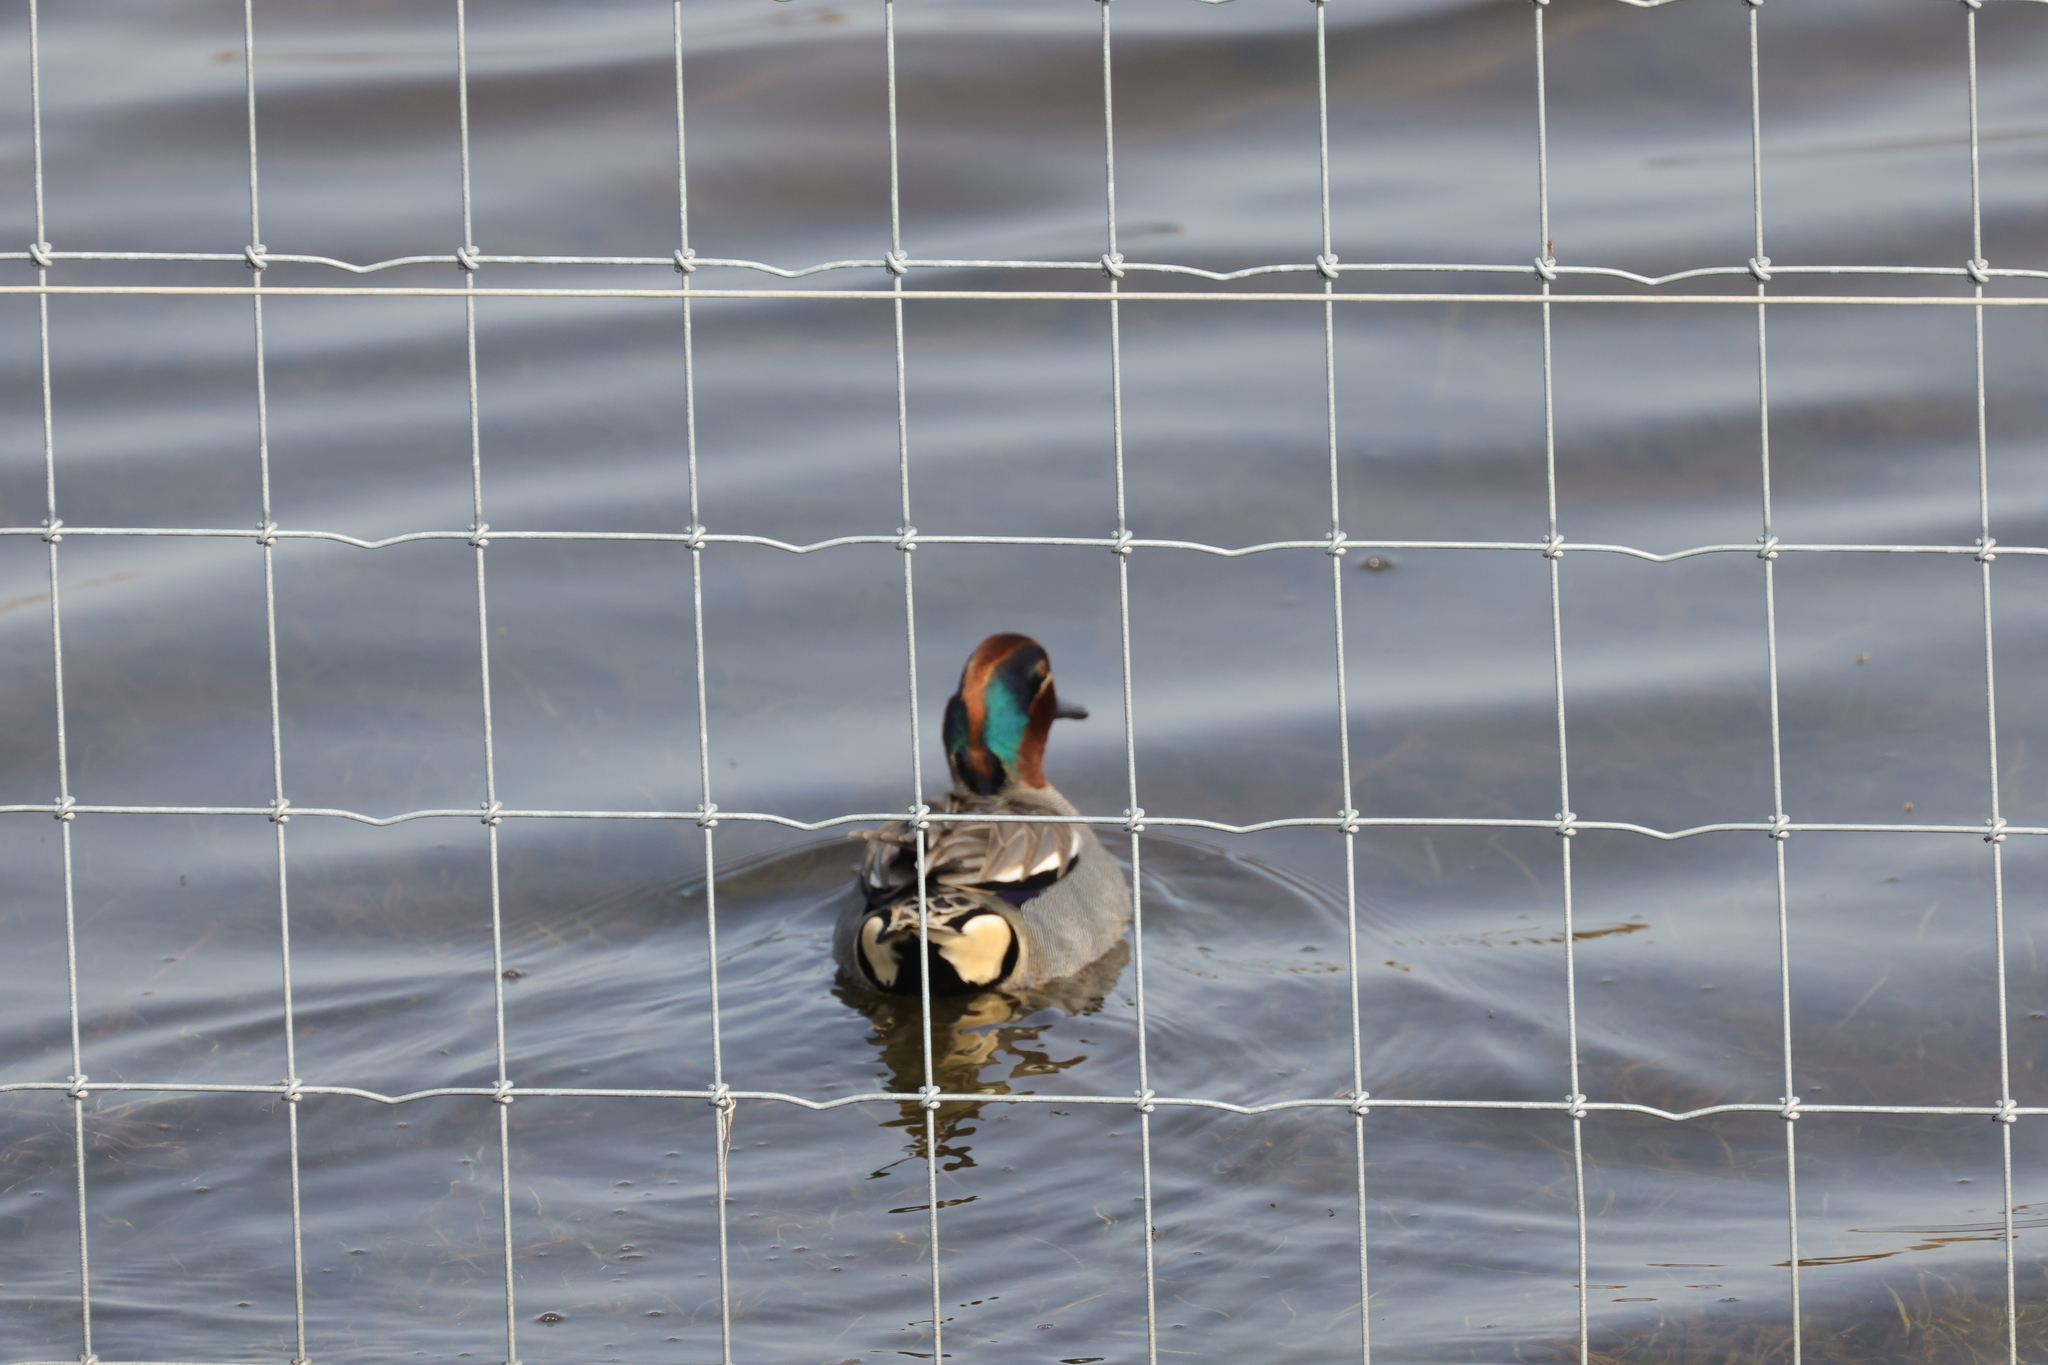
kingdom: Animalia
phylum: Chordata
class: Aves
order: Anseriformes
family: Anatidae
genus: Anas
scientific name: Anas crecca
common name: Eurasian teal
